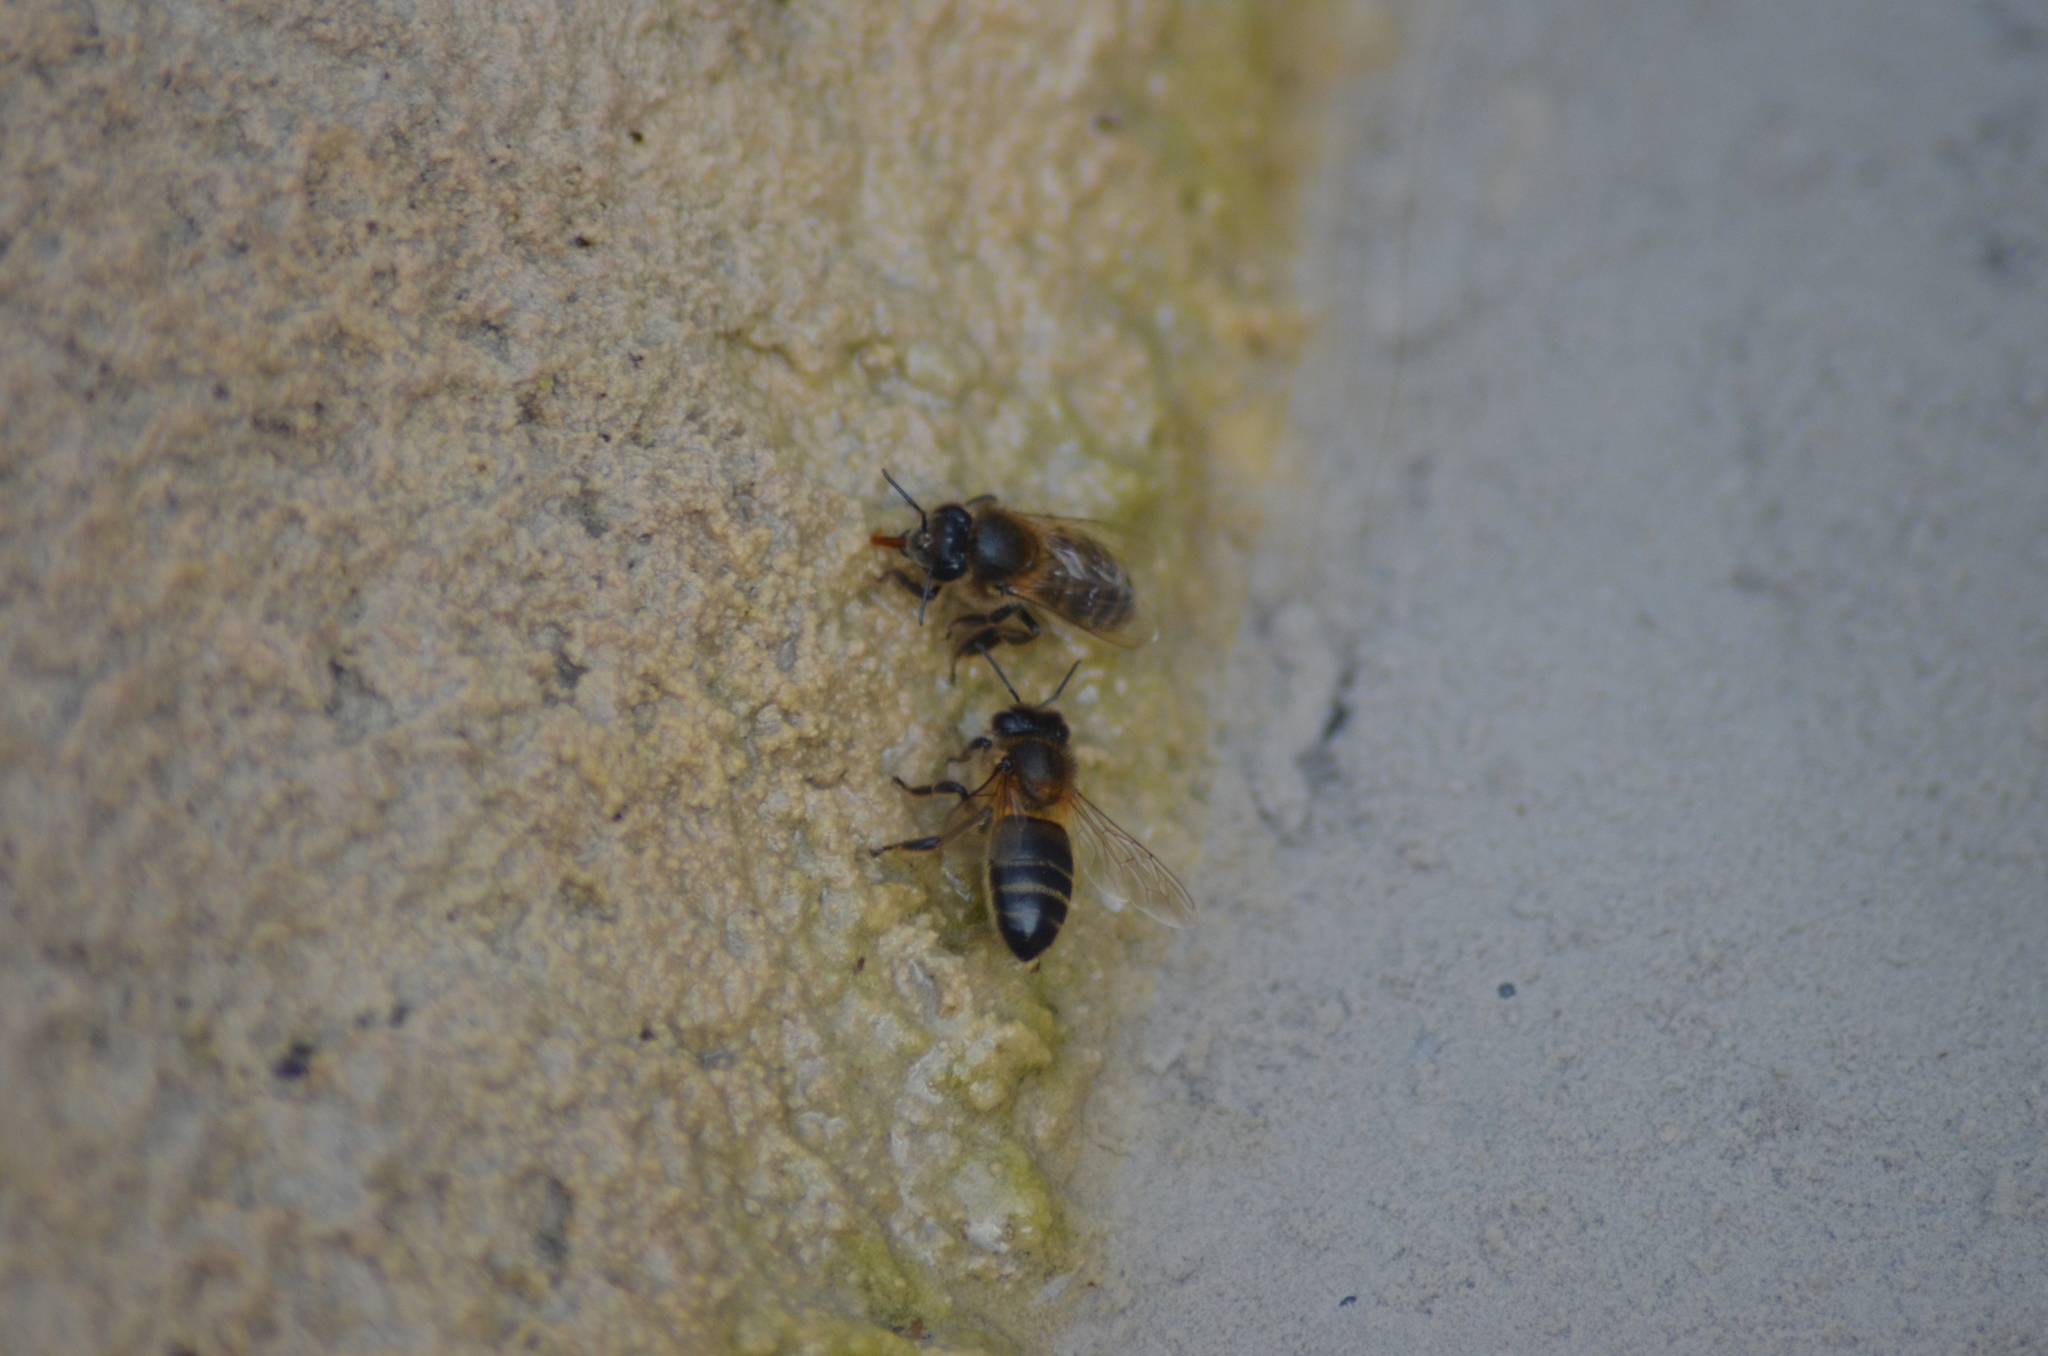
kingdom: Animalia
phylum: Arthropoda
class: Insecta
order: Hymenoptera
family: Apidae
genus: Apis
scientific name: Apis mellifera
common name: Honey bee
